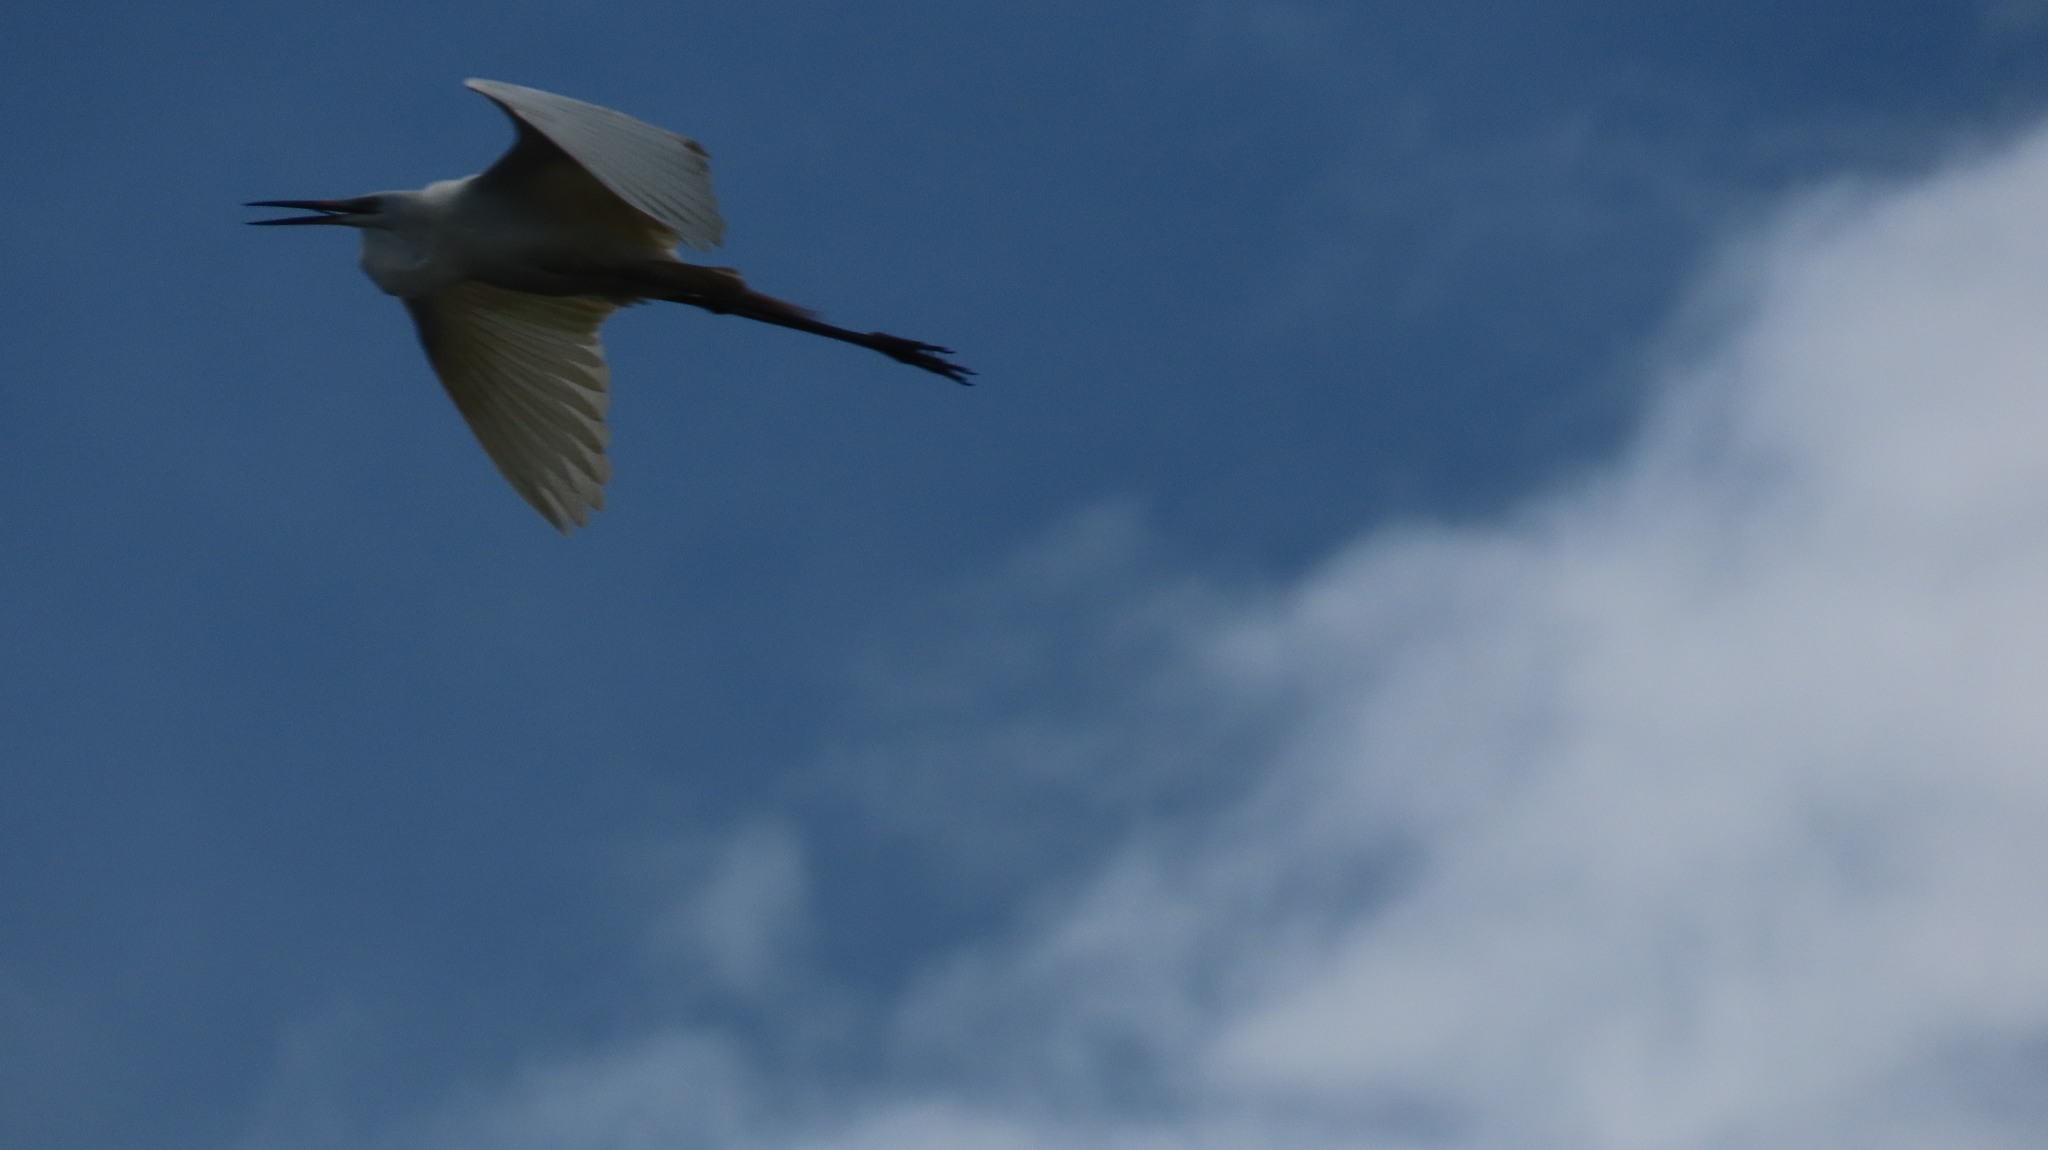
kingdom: Animalia
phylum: Chordata
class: Aves
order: Pelecaniformes
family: Ardeidae
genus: Ardea
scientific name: Ardea alba
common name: Great egret
